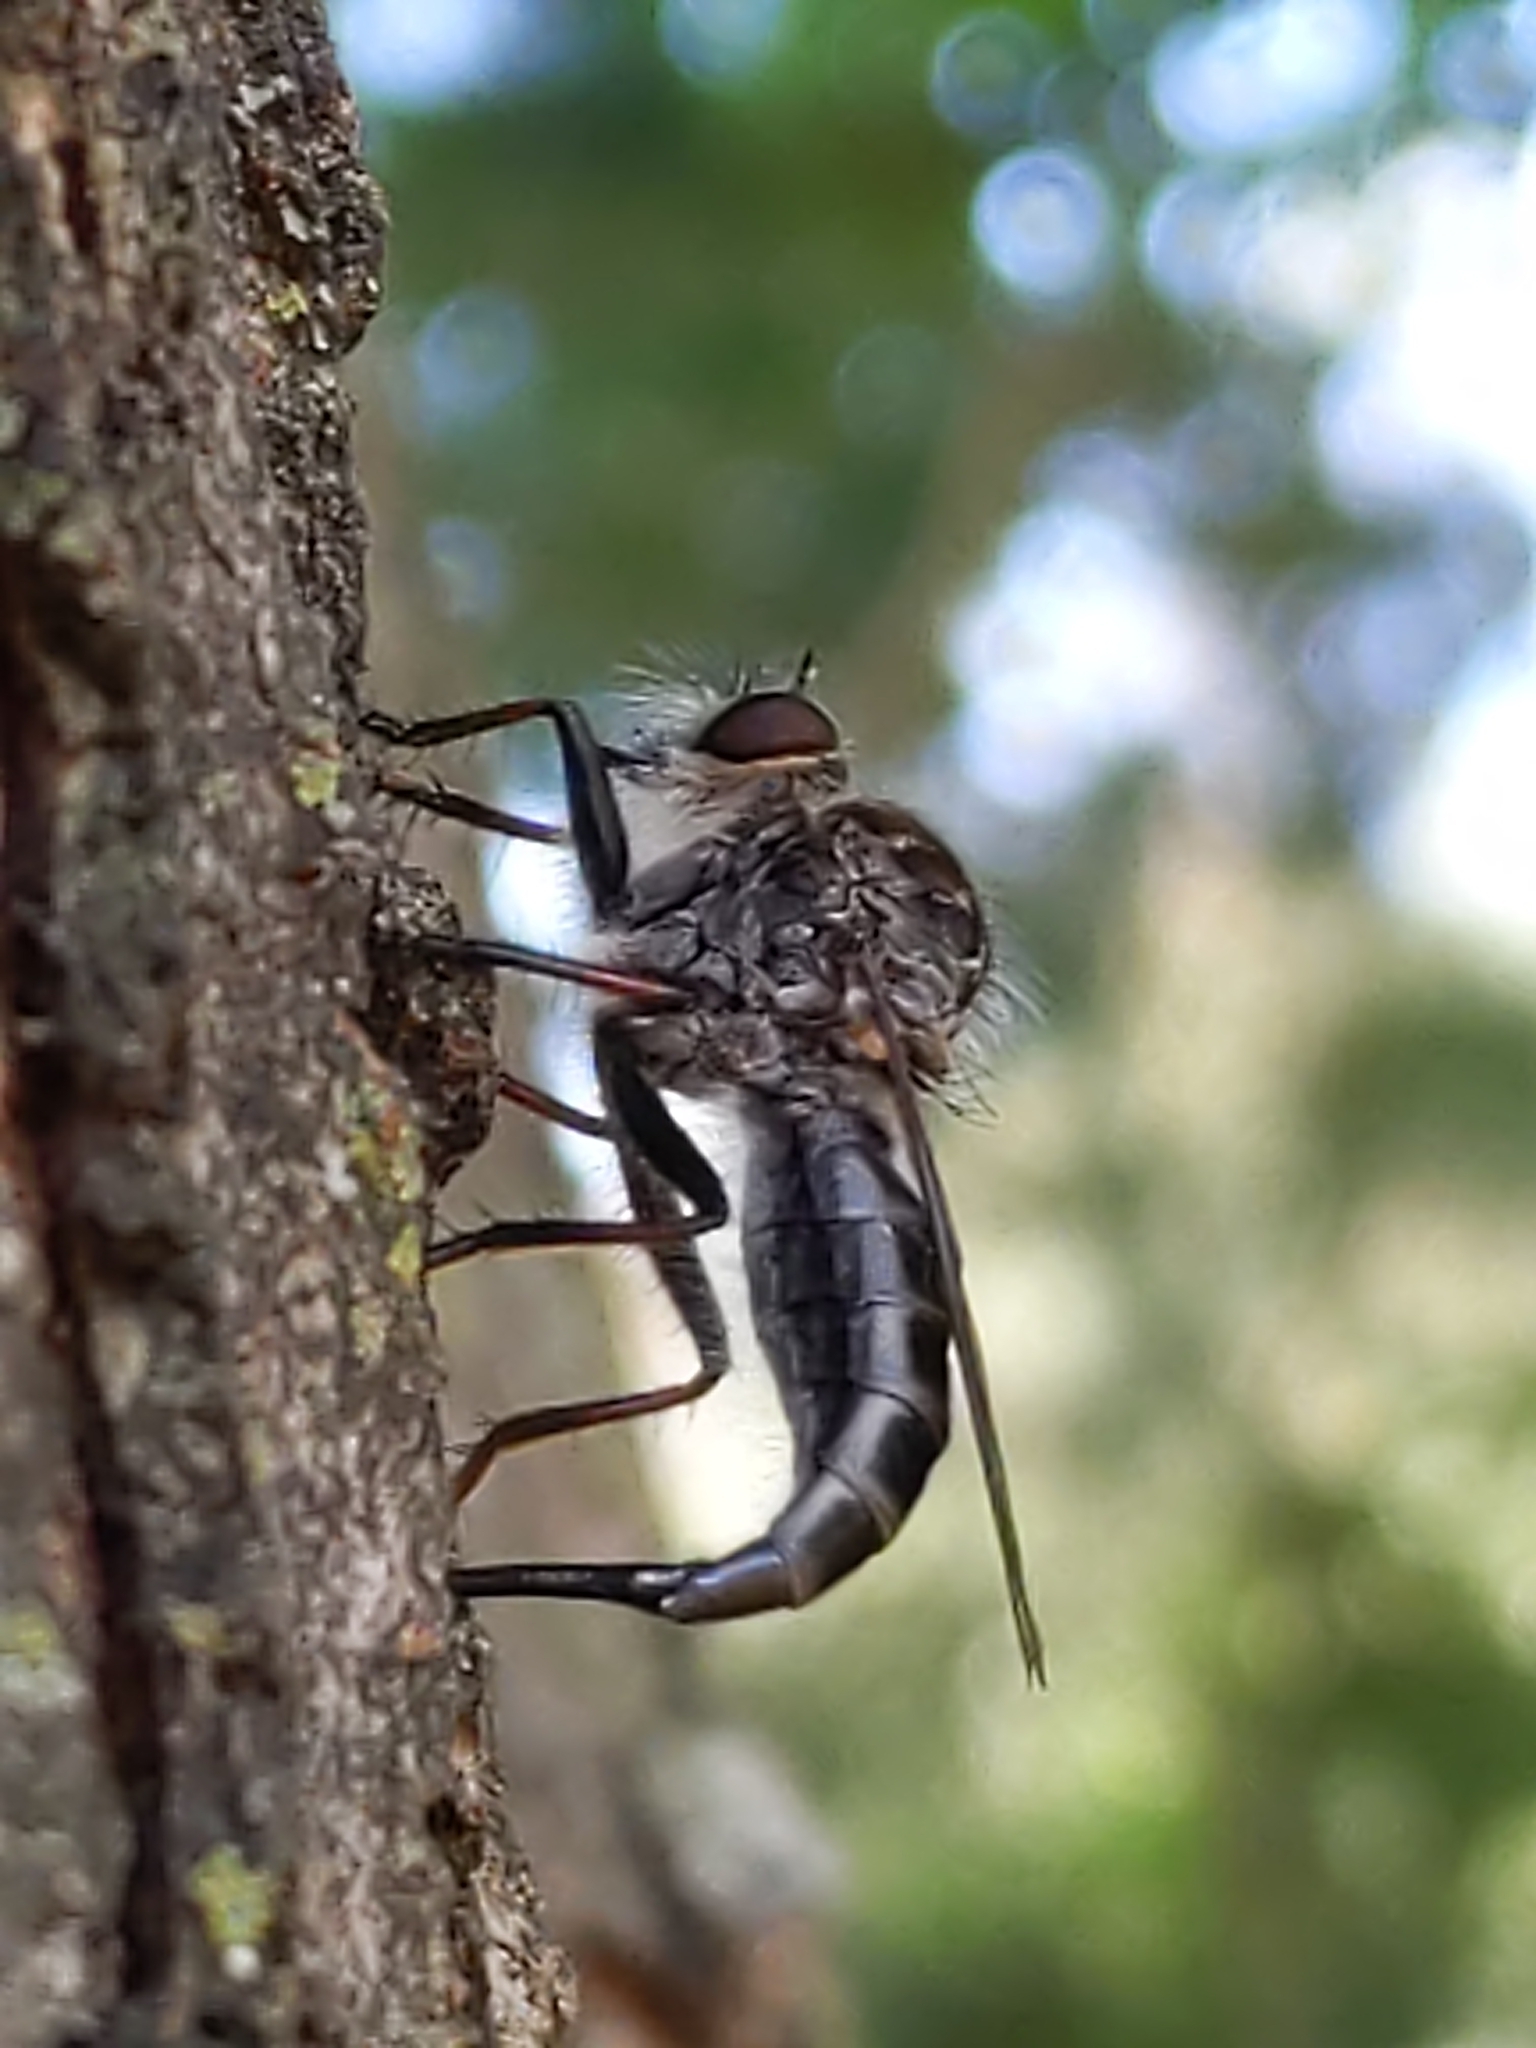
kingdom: Animalia
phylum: Arthropoda
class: Insecta
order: Diptera
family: Asilidae
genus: Efferia
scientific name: Efferia
